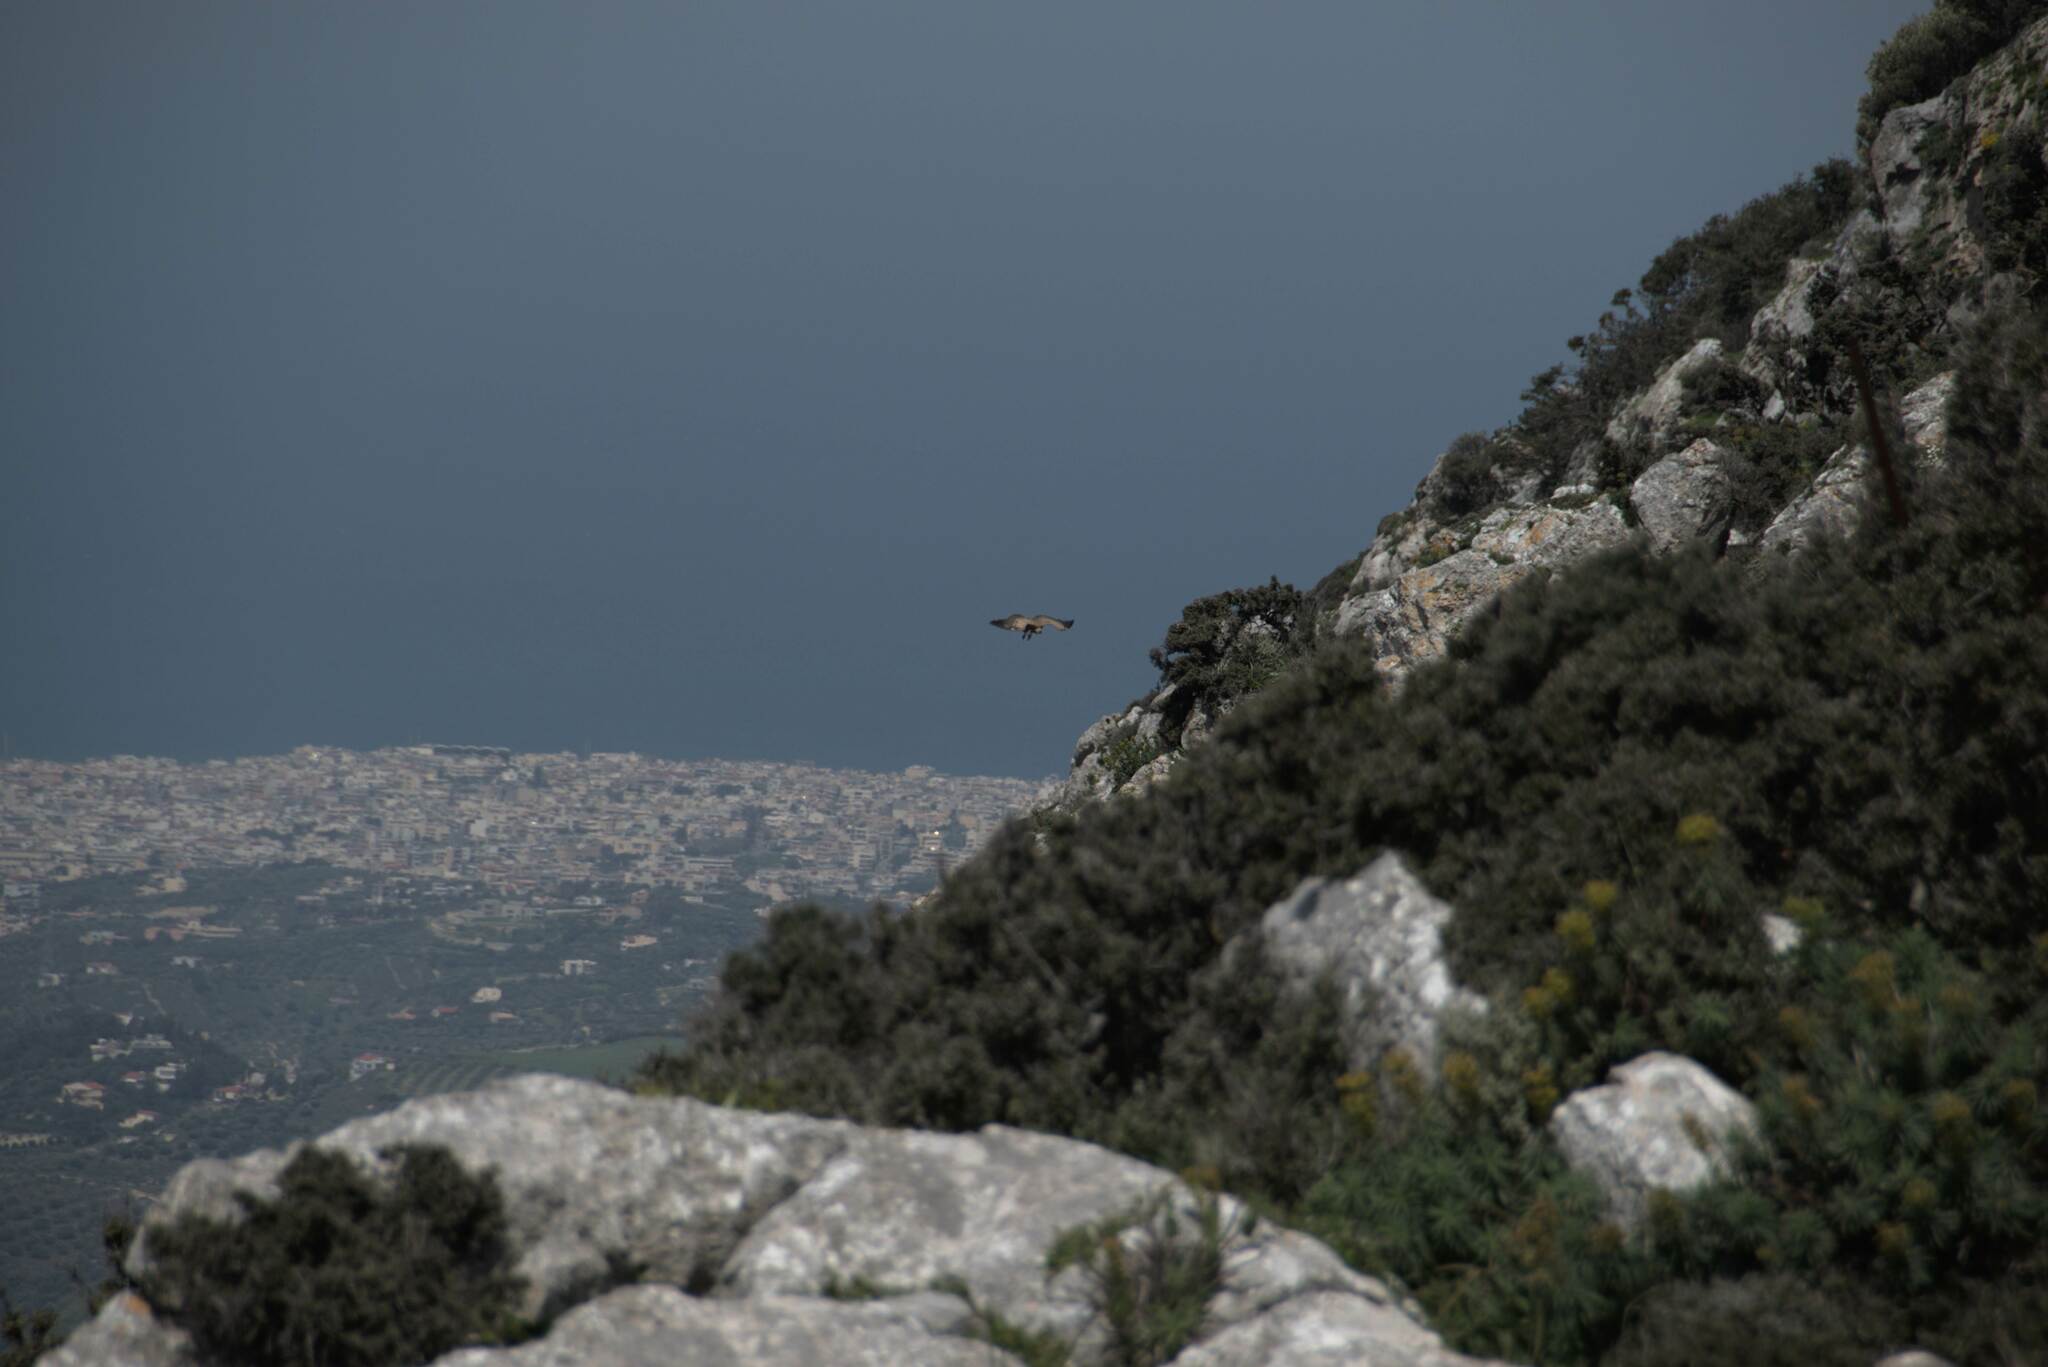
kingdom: Animalia
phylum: Chordata
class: Aves
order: Accipitriformes
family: Accipitridae
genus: Gyps
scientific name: Gyps fulvus
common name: Griffon vulture
